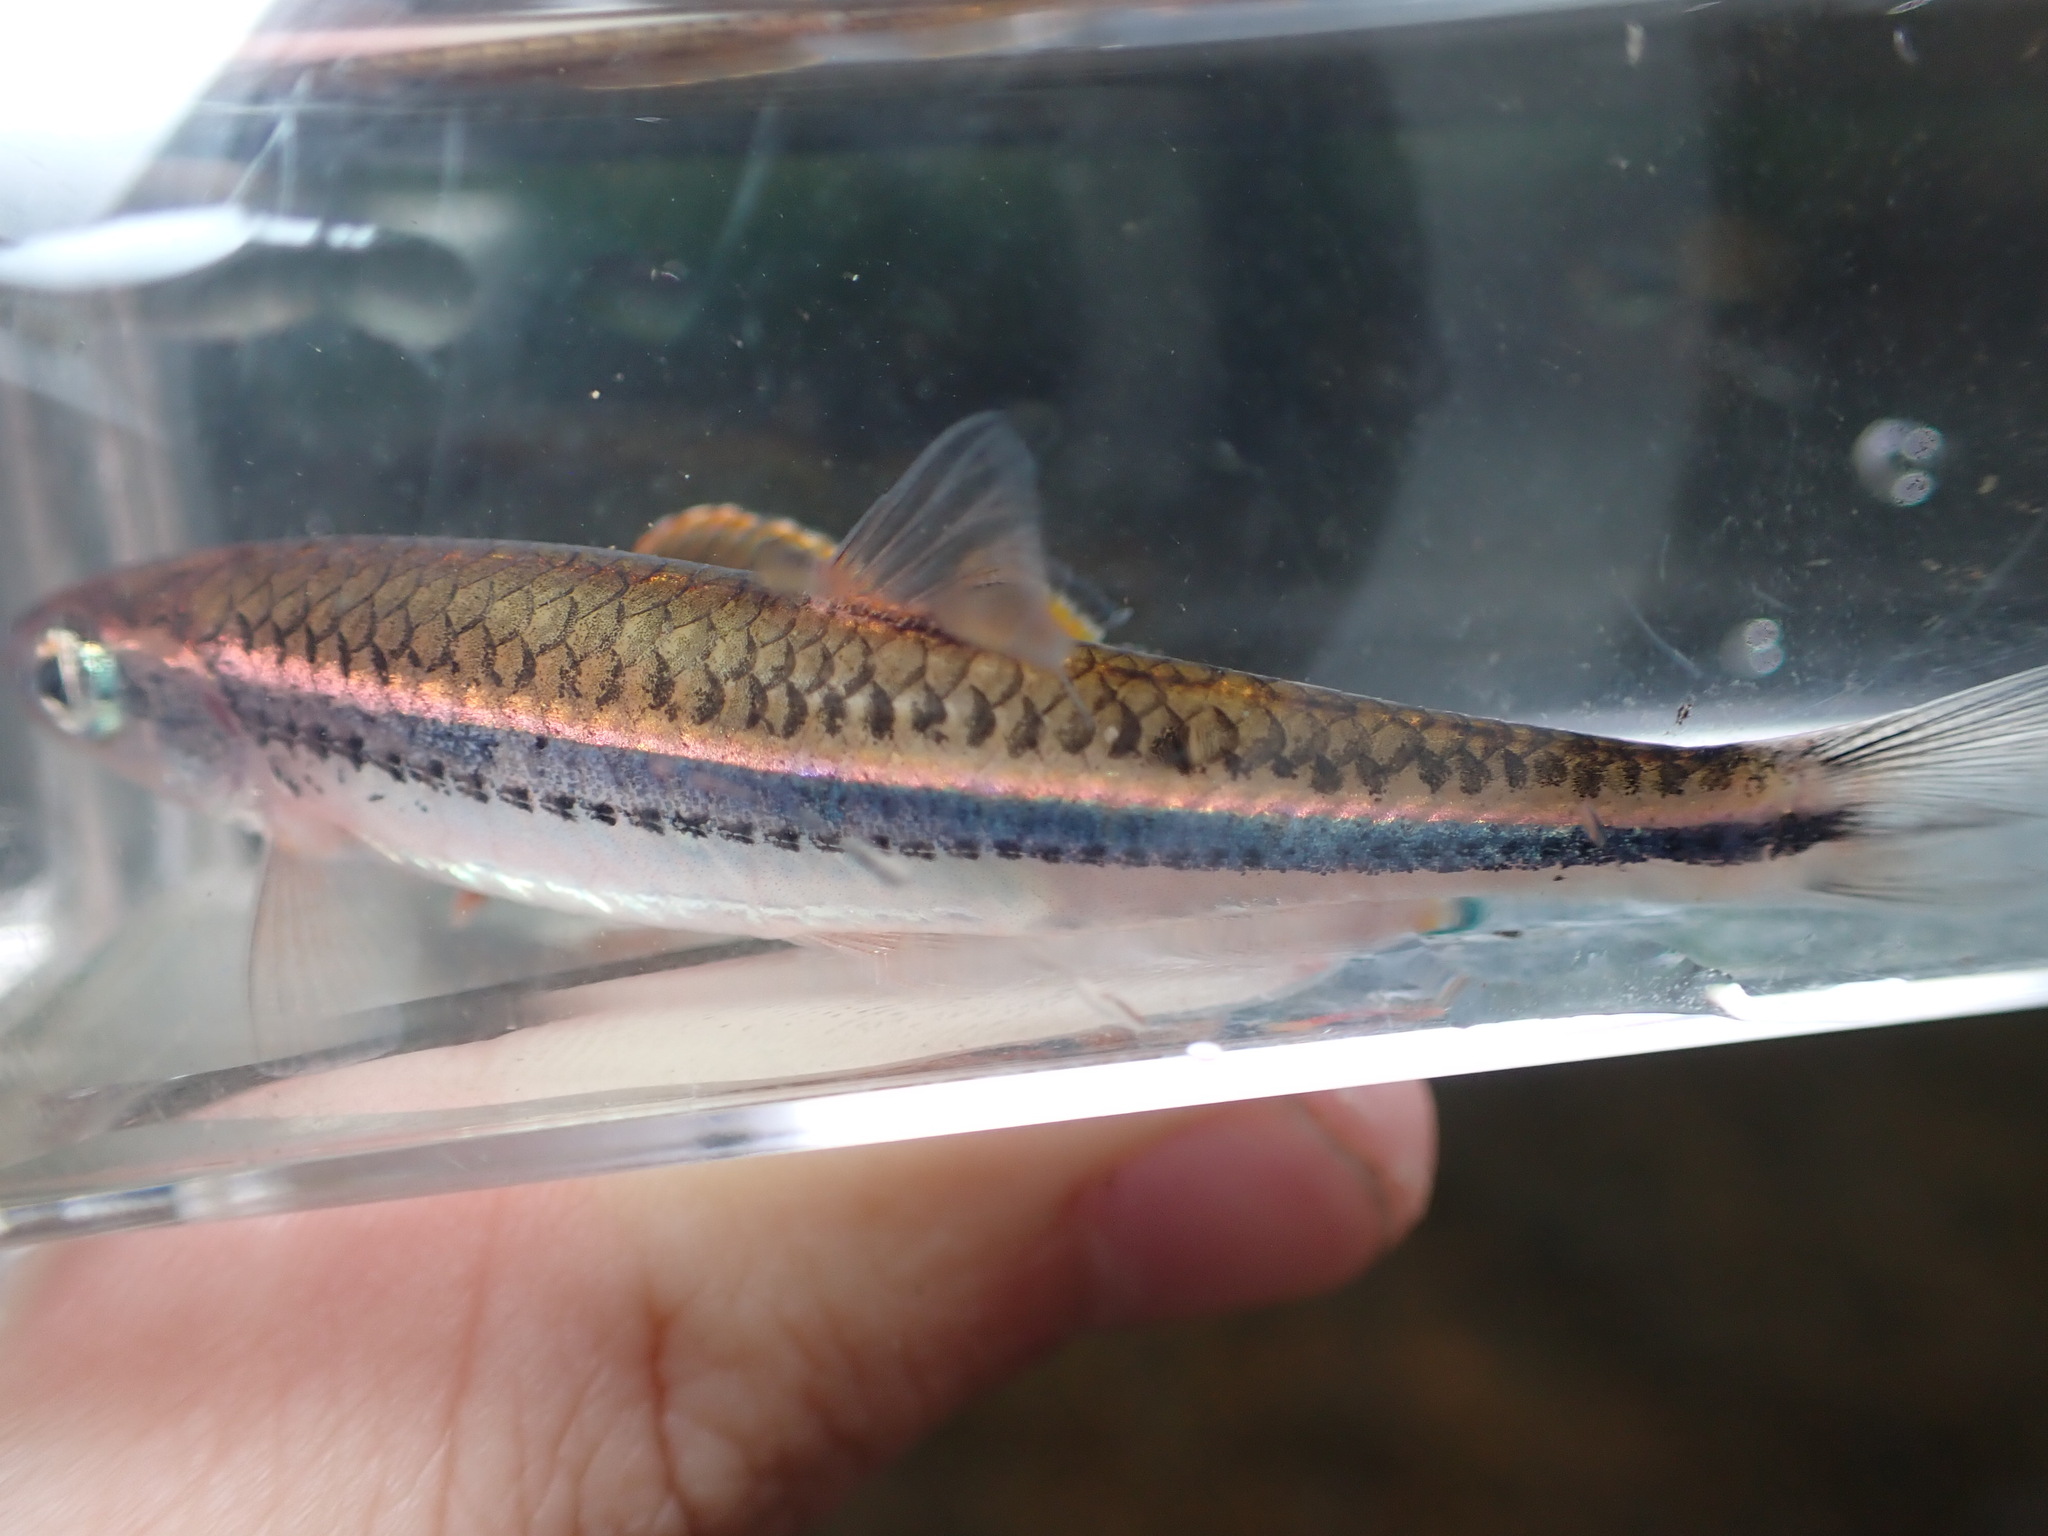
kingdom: Animalia
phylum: Chordata
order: Cypriniformes
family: Cyprinidae
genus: Notropis
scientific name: Notropis
